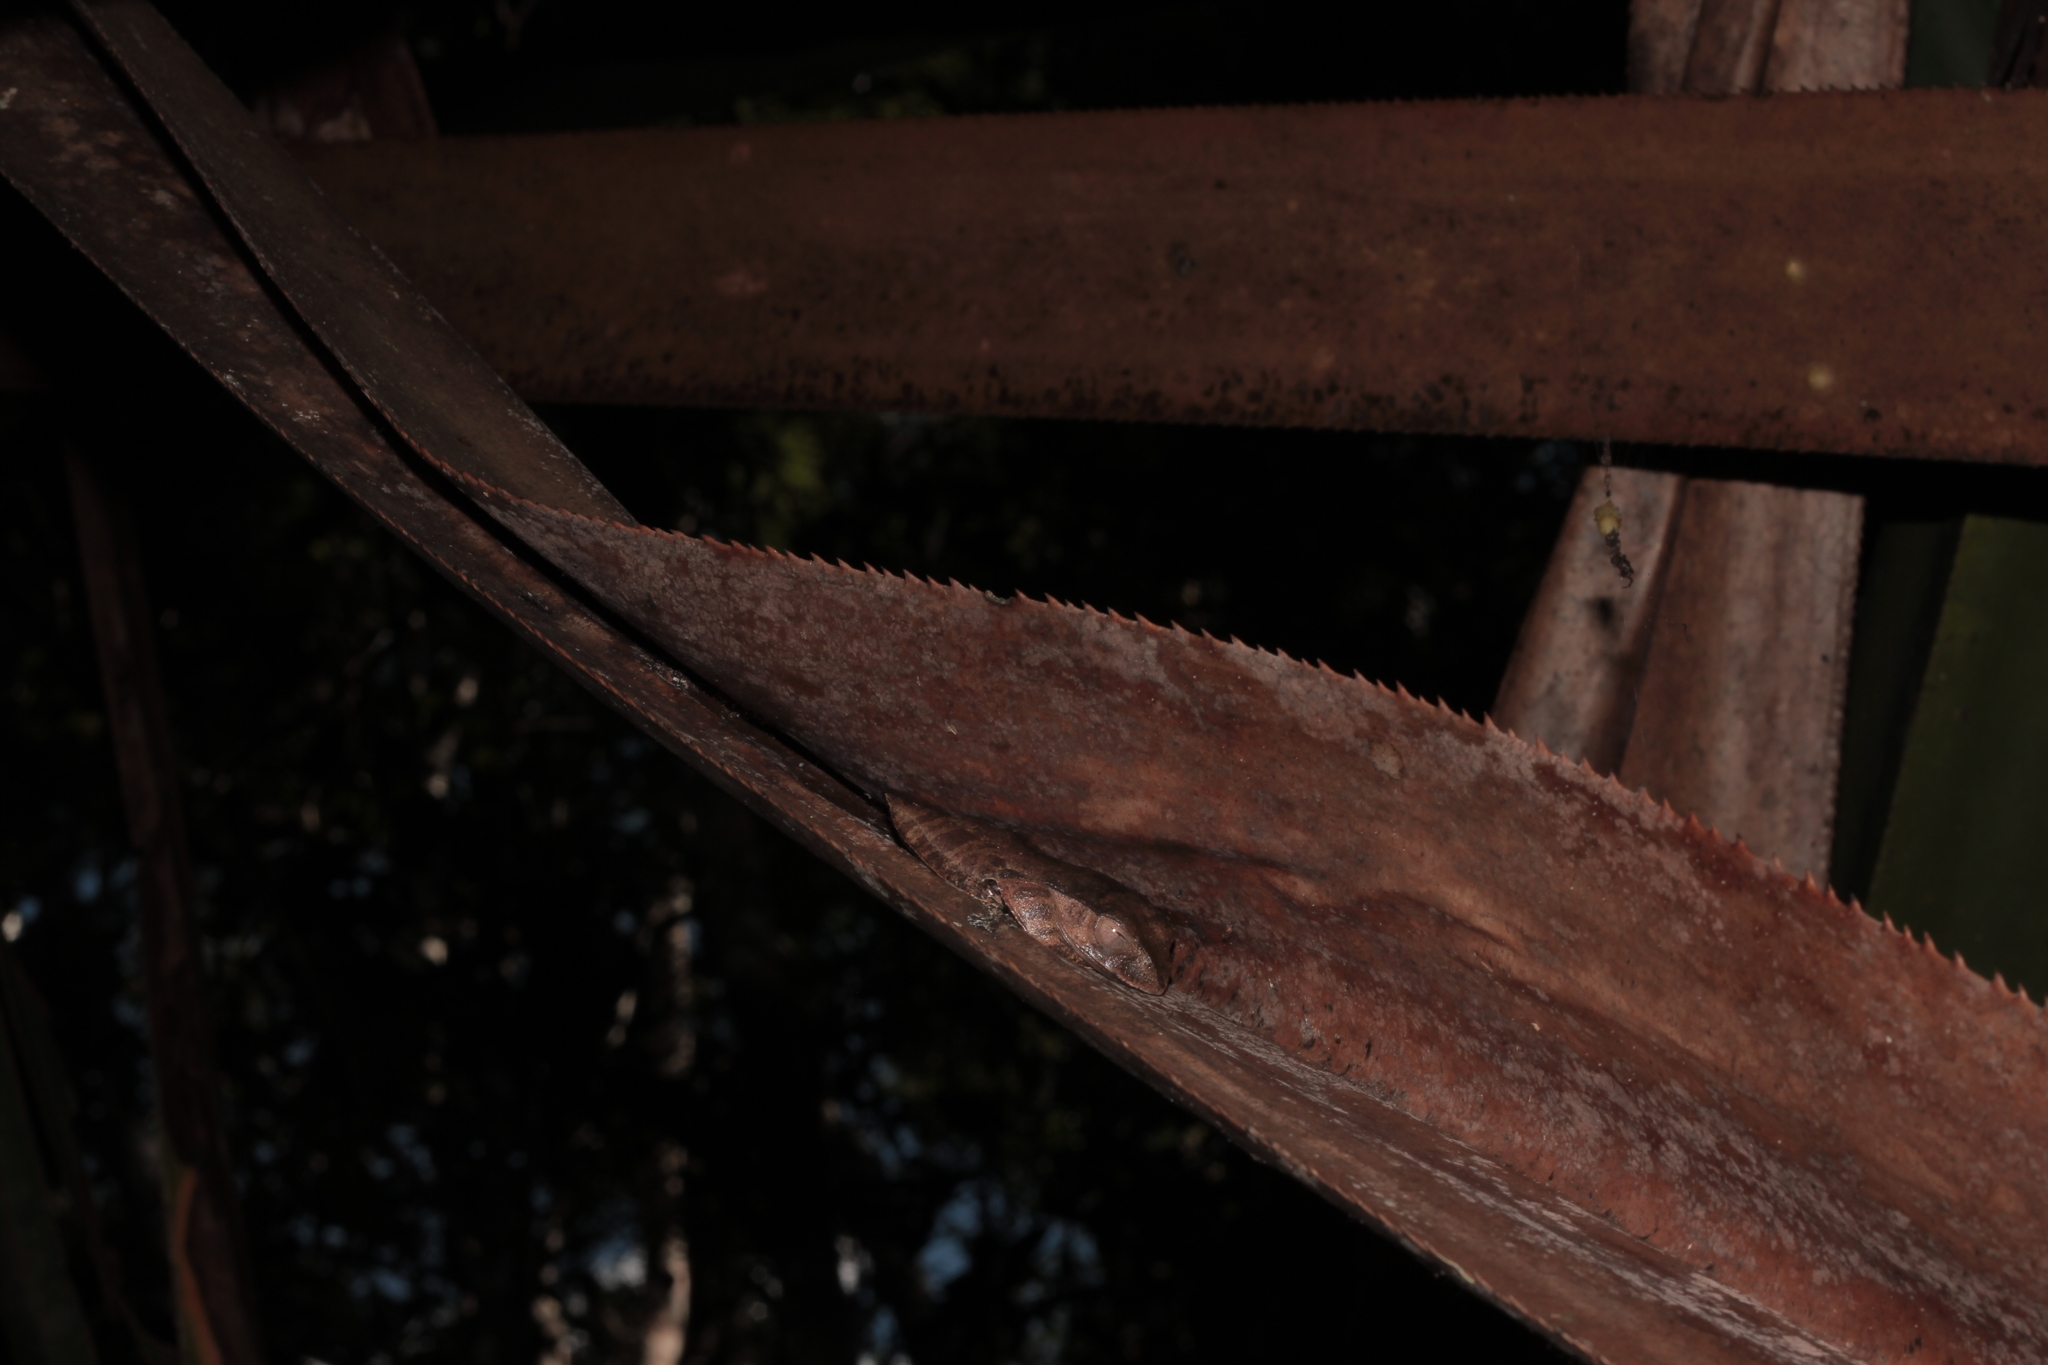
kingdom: Animalia
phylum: Chordata
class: Amphibia
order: Anura
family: Mantellidae
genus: Boophis
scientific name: Boophis madagascariensis
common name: Madagascar bright-eyed frog
